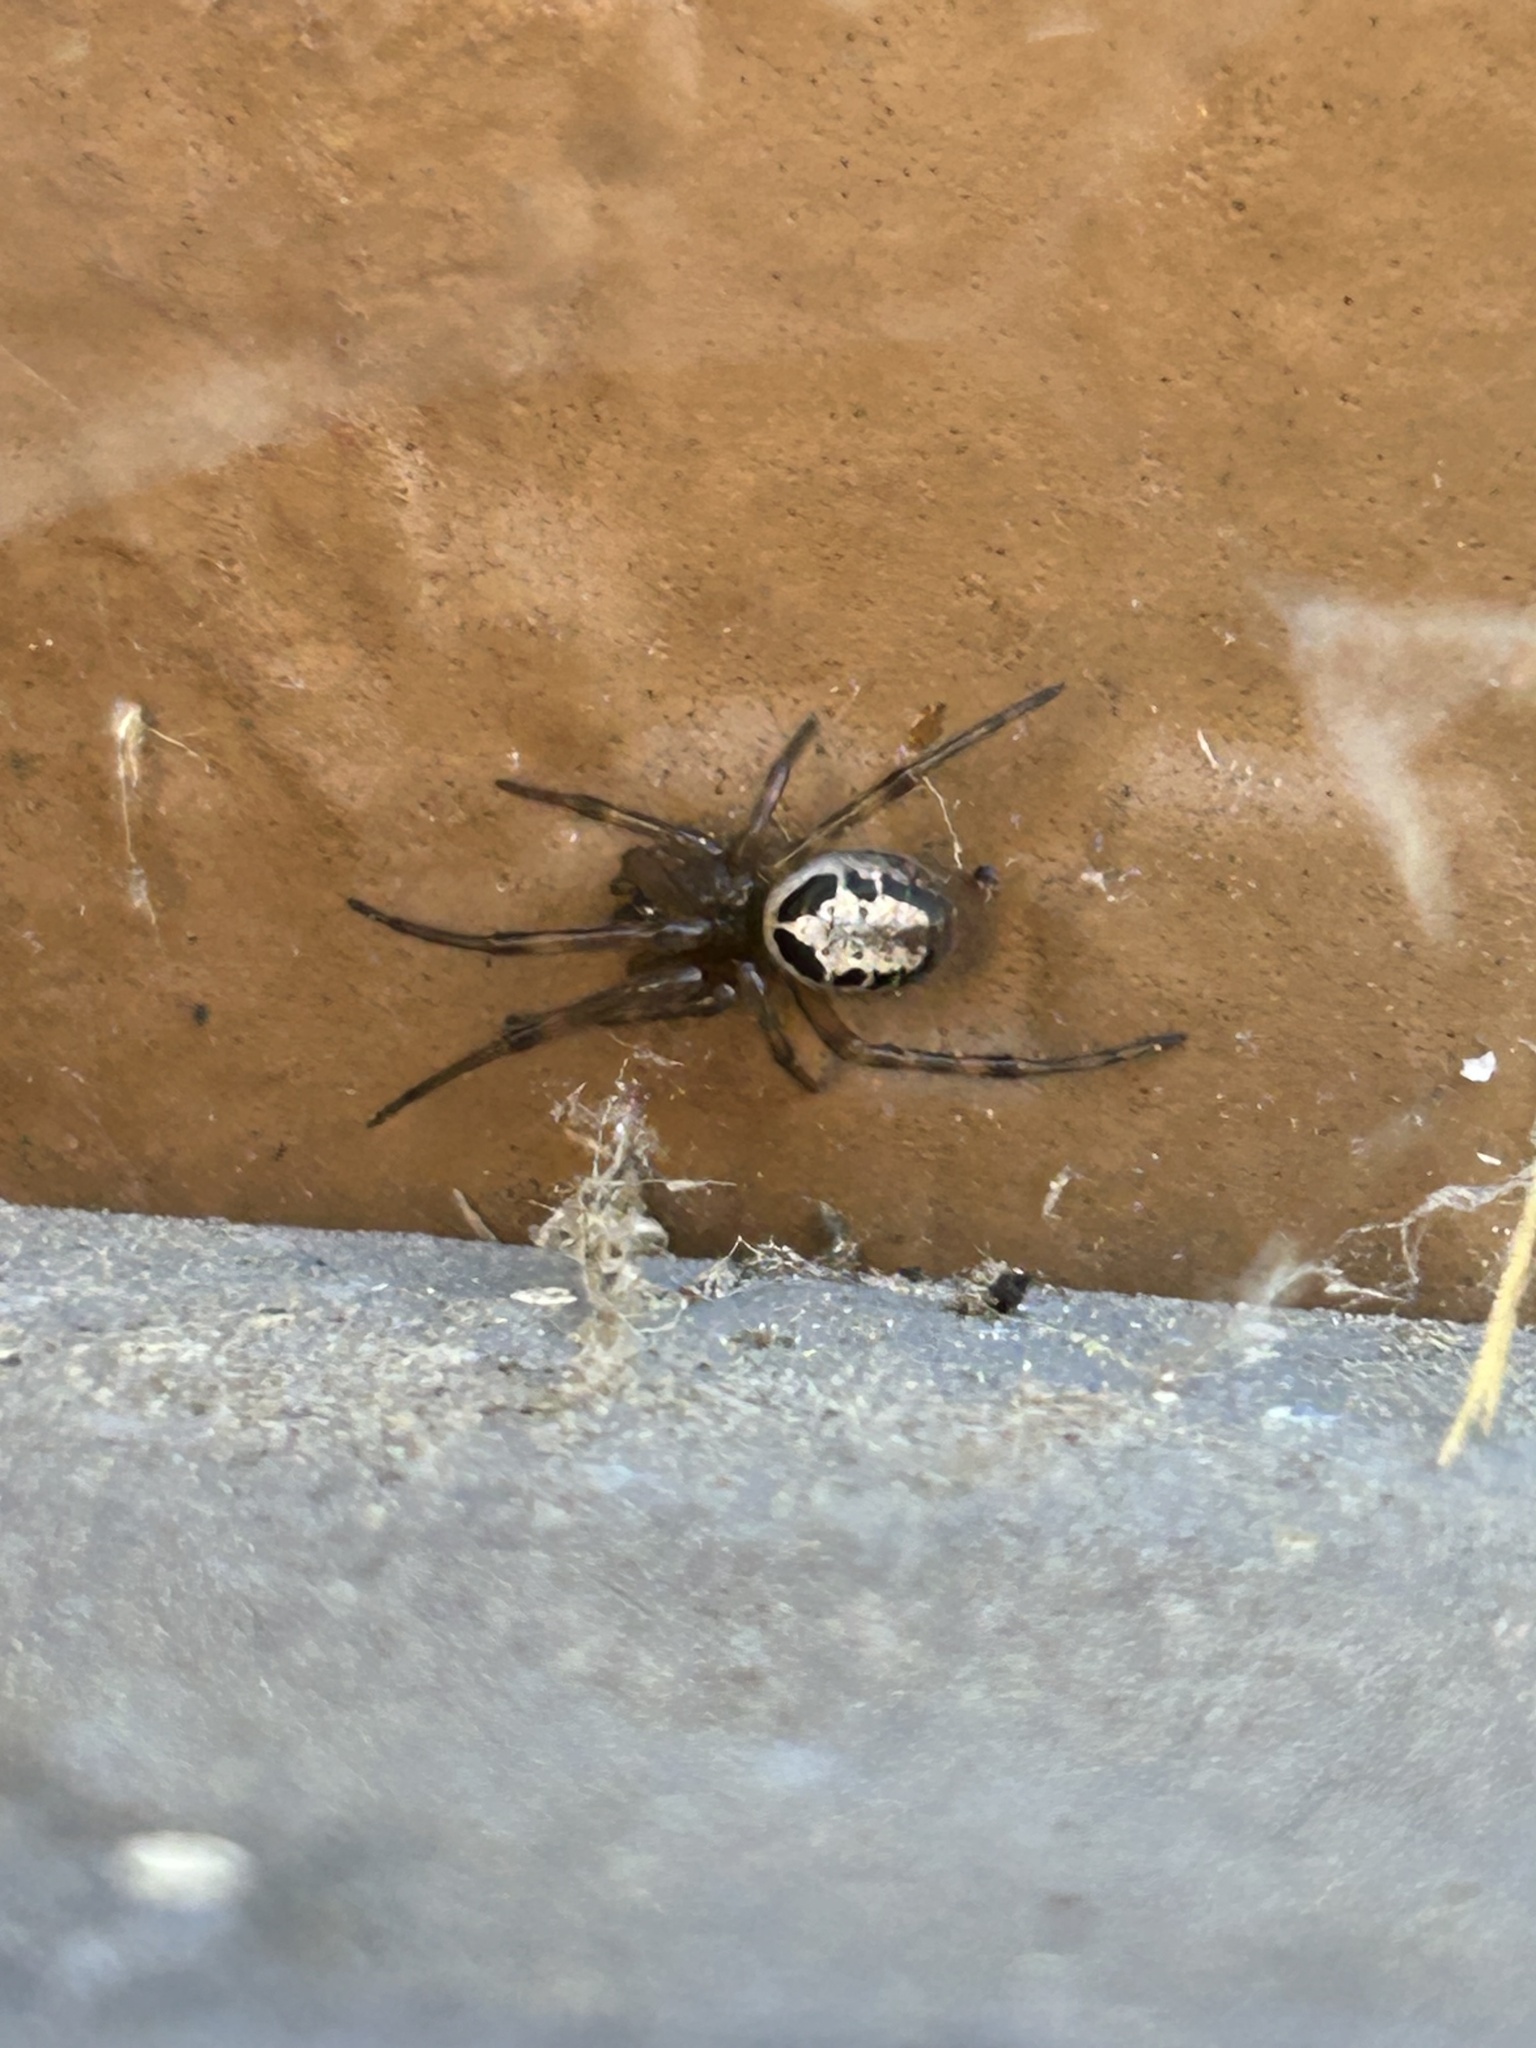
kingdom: Animalia
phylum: Arthropoda
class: Arachnida
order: Araneae
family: Theridiidae
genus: Steatoda
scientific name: Steatoda nobilis
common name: Cobweb weaver
